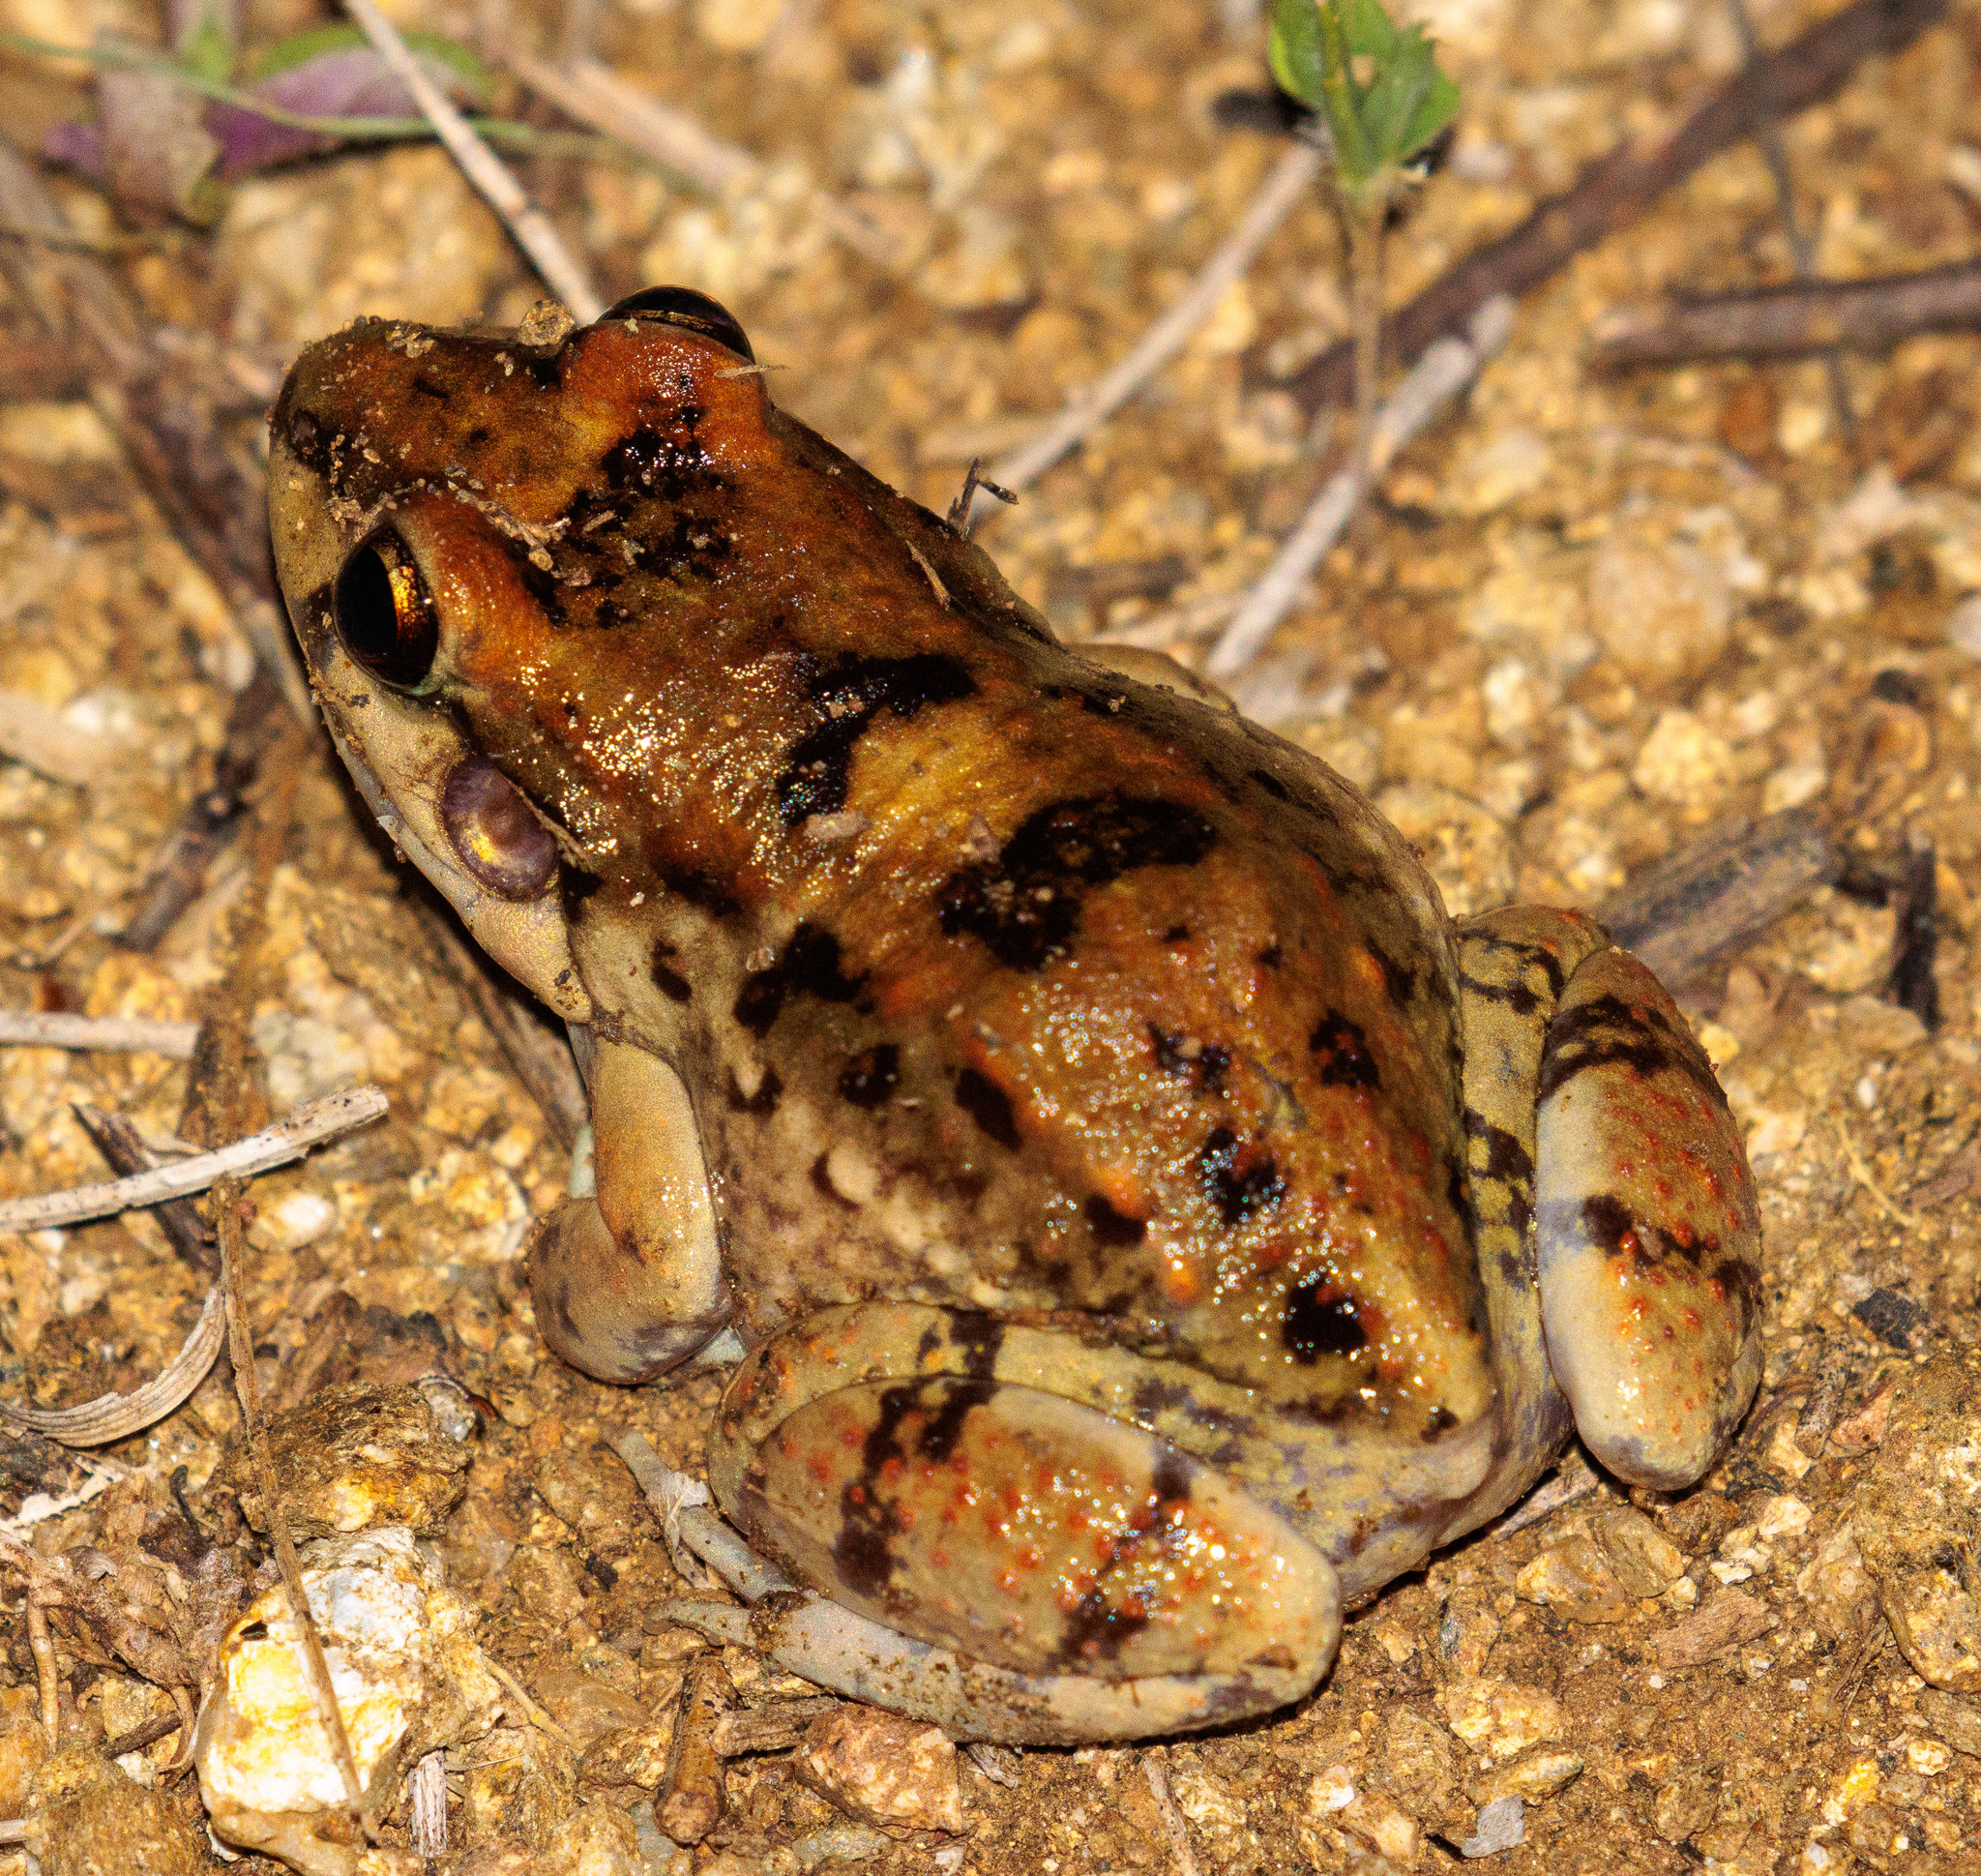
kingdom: Animalia
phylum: Chordata
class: Amphibia
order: Anura
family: Leptodactylidae
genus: Leptodactylus
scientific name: Leptodactylus troglodytes
